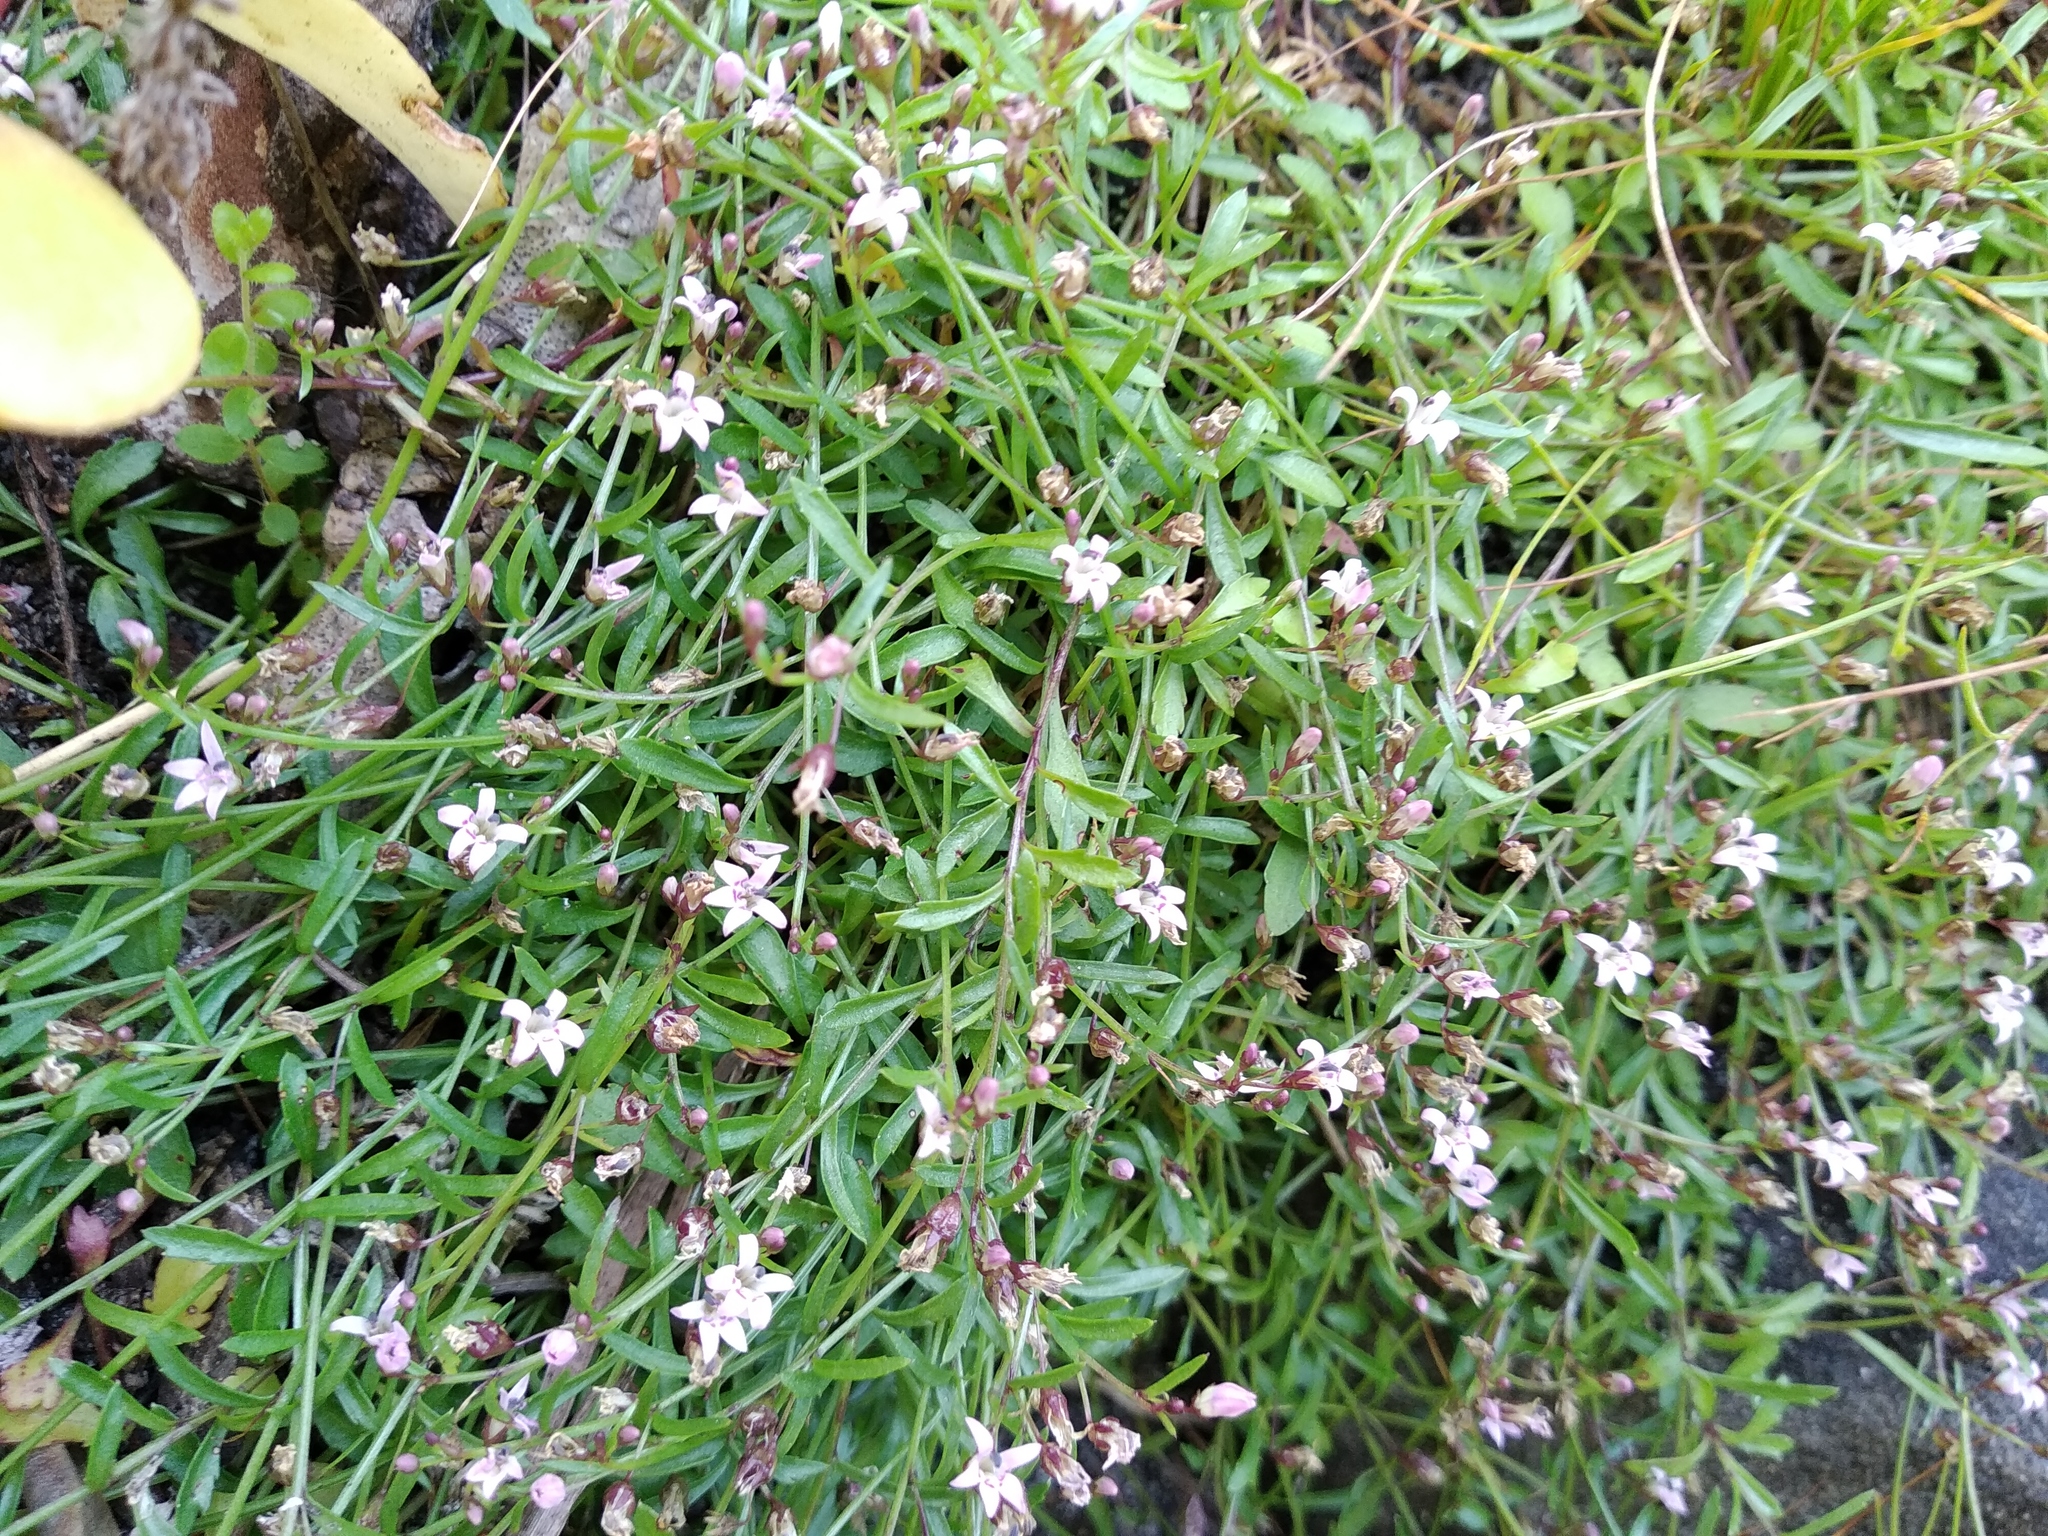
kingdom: Plantae
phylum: Tracheophyta
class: Magnoliopsida
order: Asterales
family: Campanulaceae
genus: Lobelia
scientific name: Lobelia eckloniana
